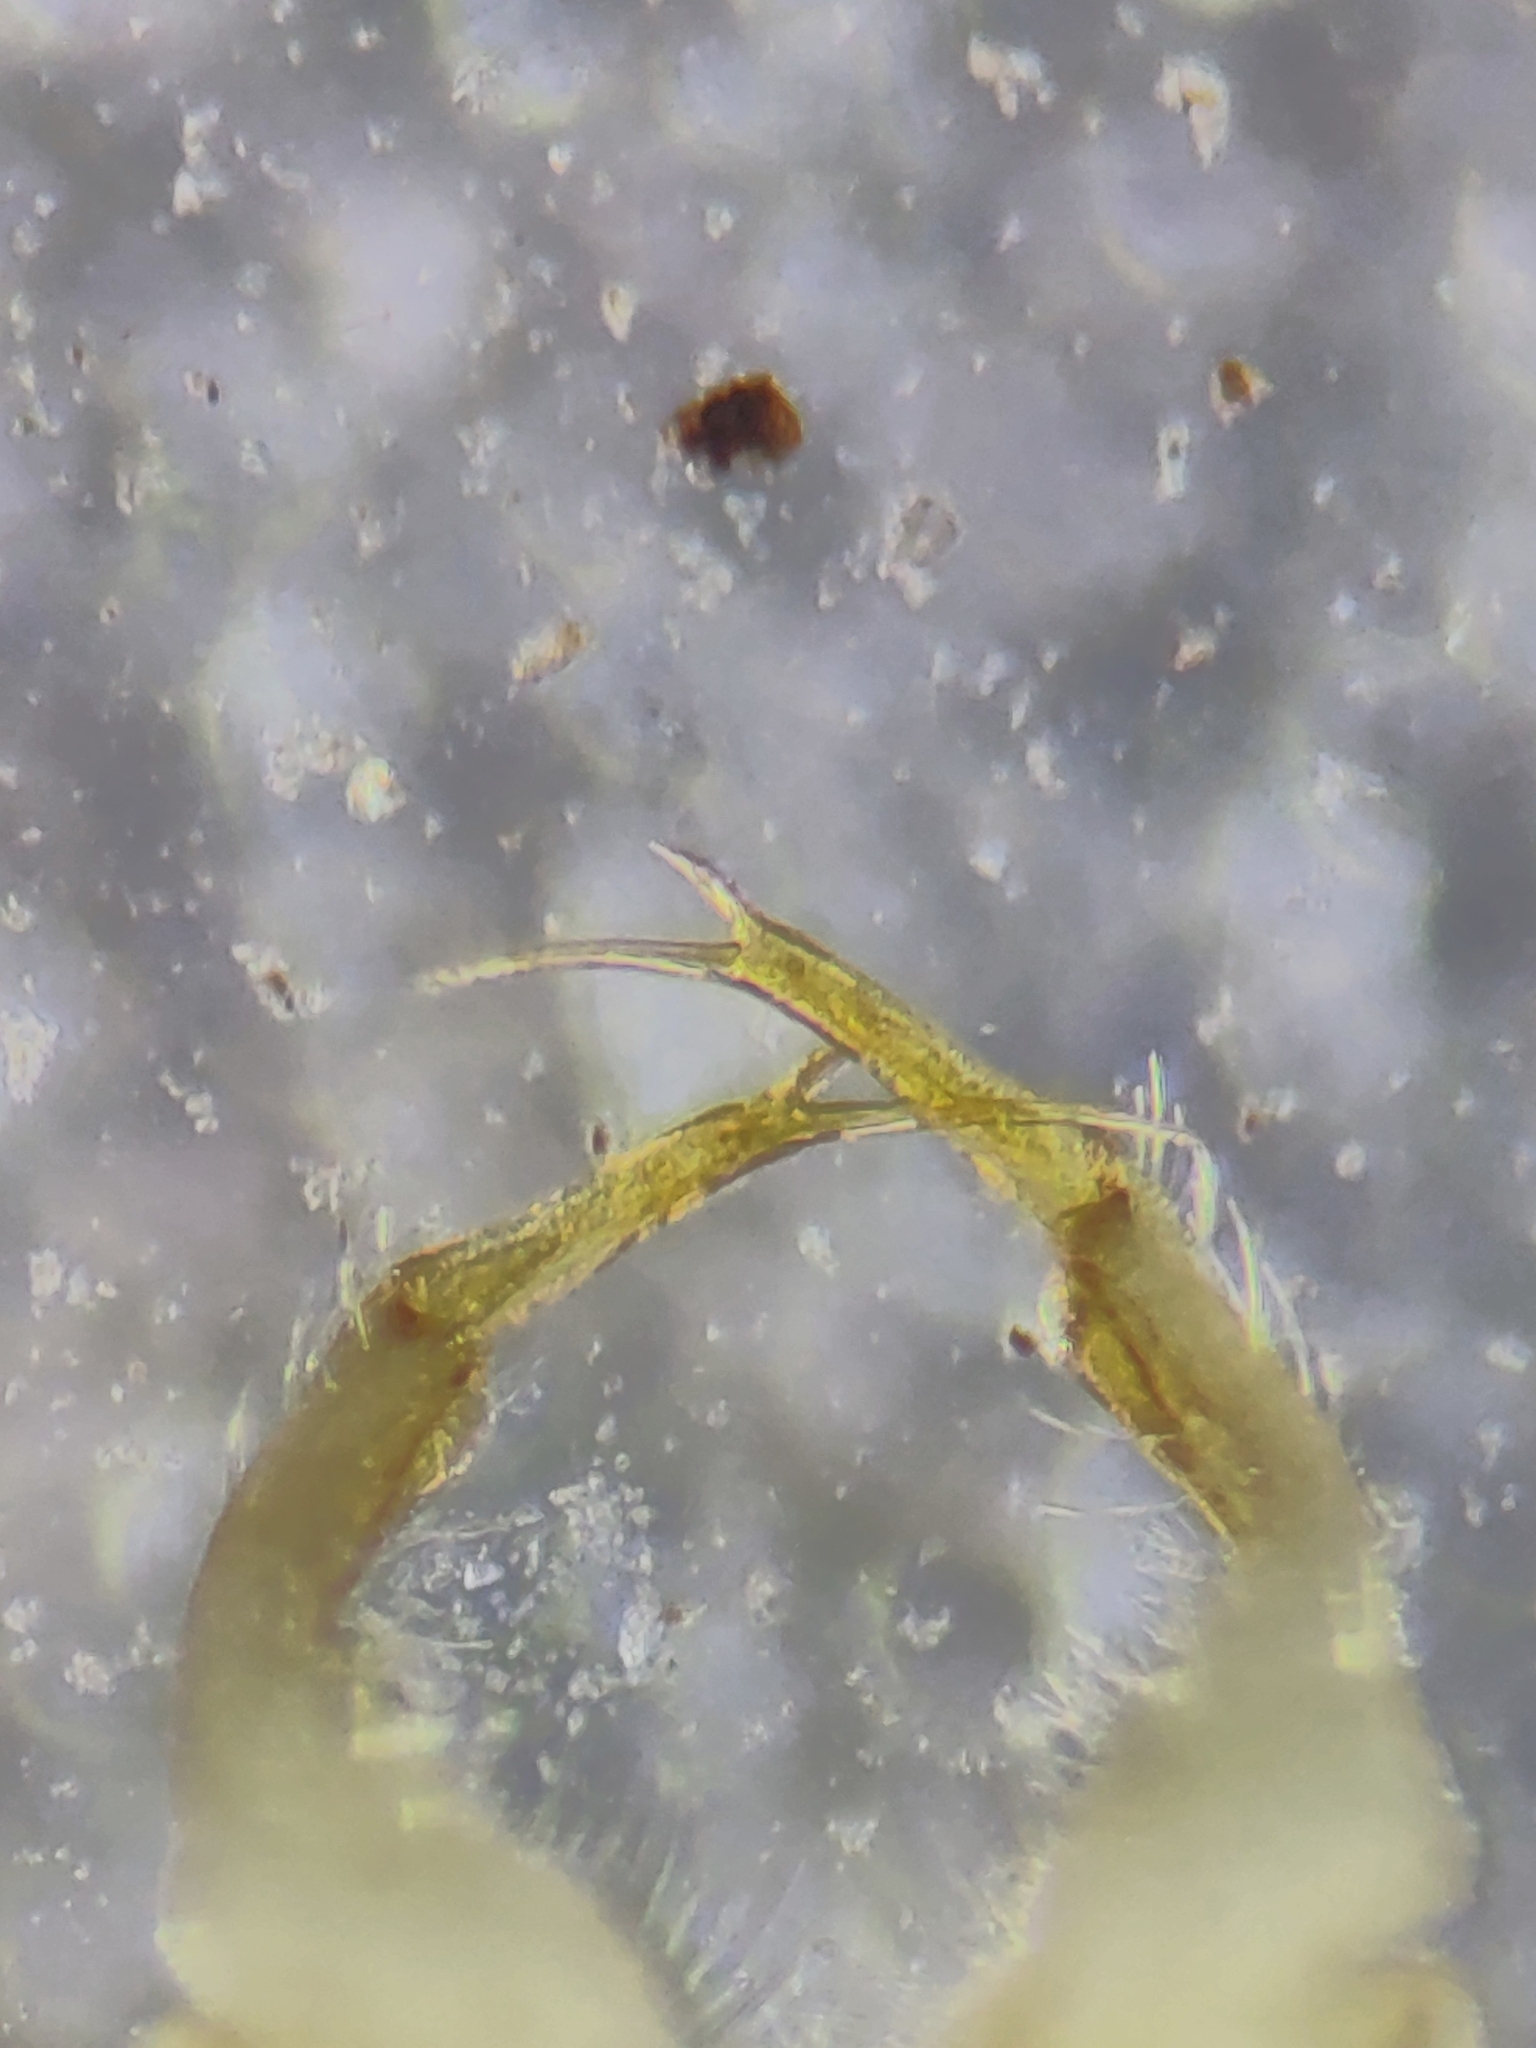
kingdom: Animalia
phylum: Arthropoda
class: Diplopoda
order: Polydesmida
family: Xystodesmidae
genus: Euryurus
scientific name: Euryurus maculatus
